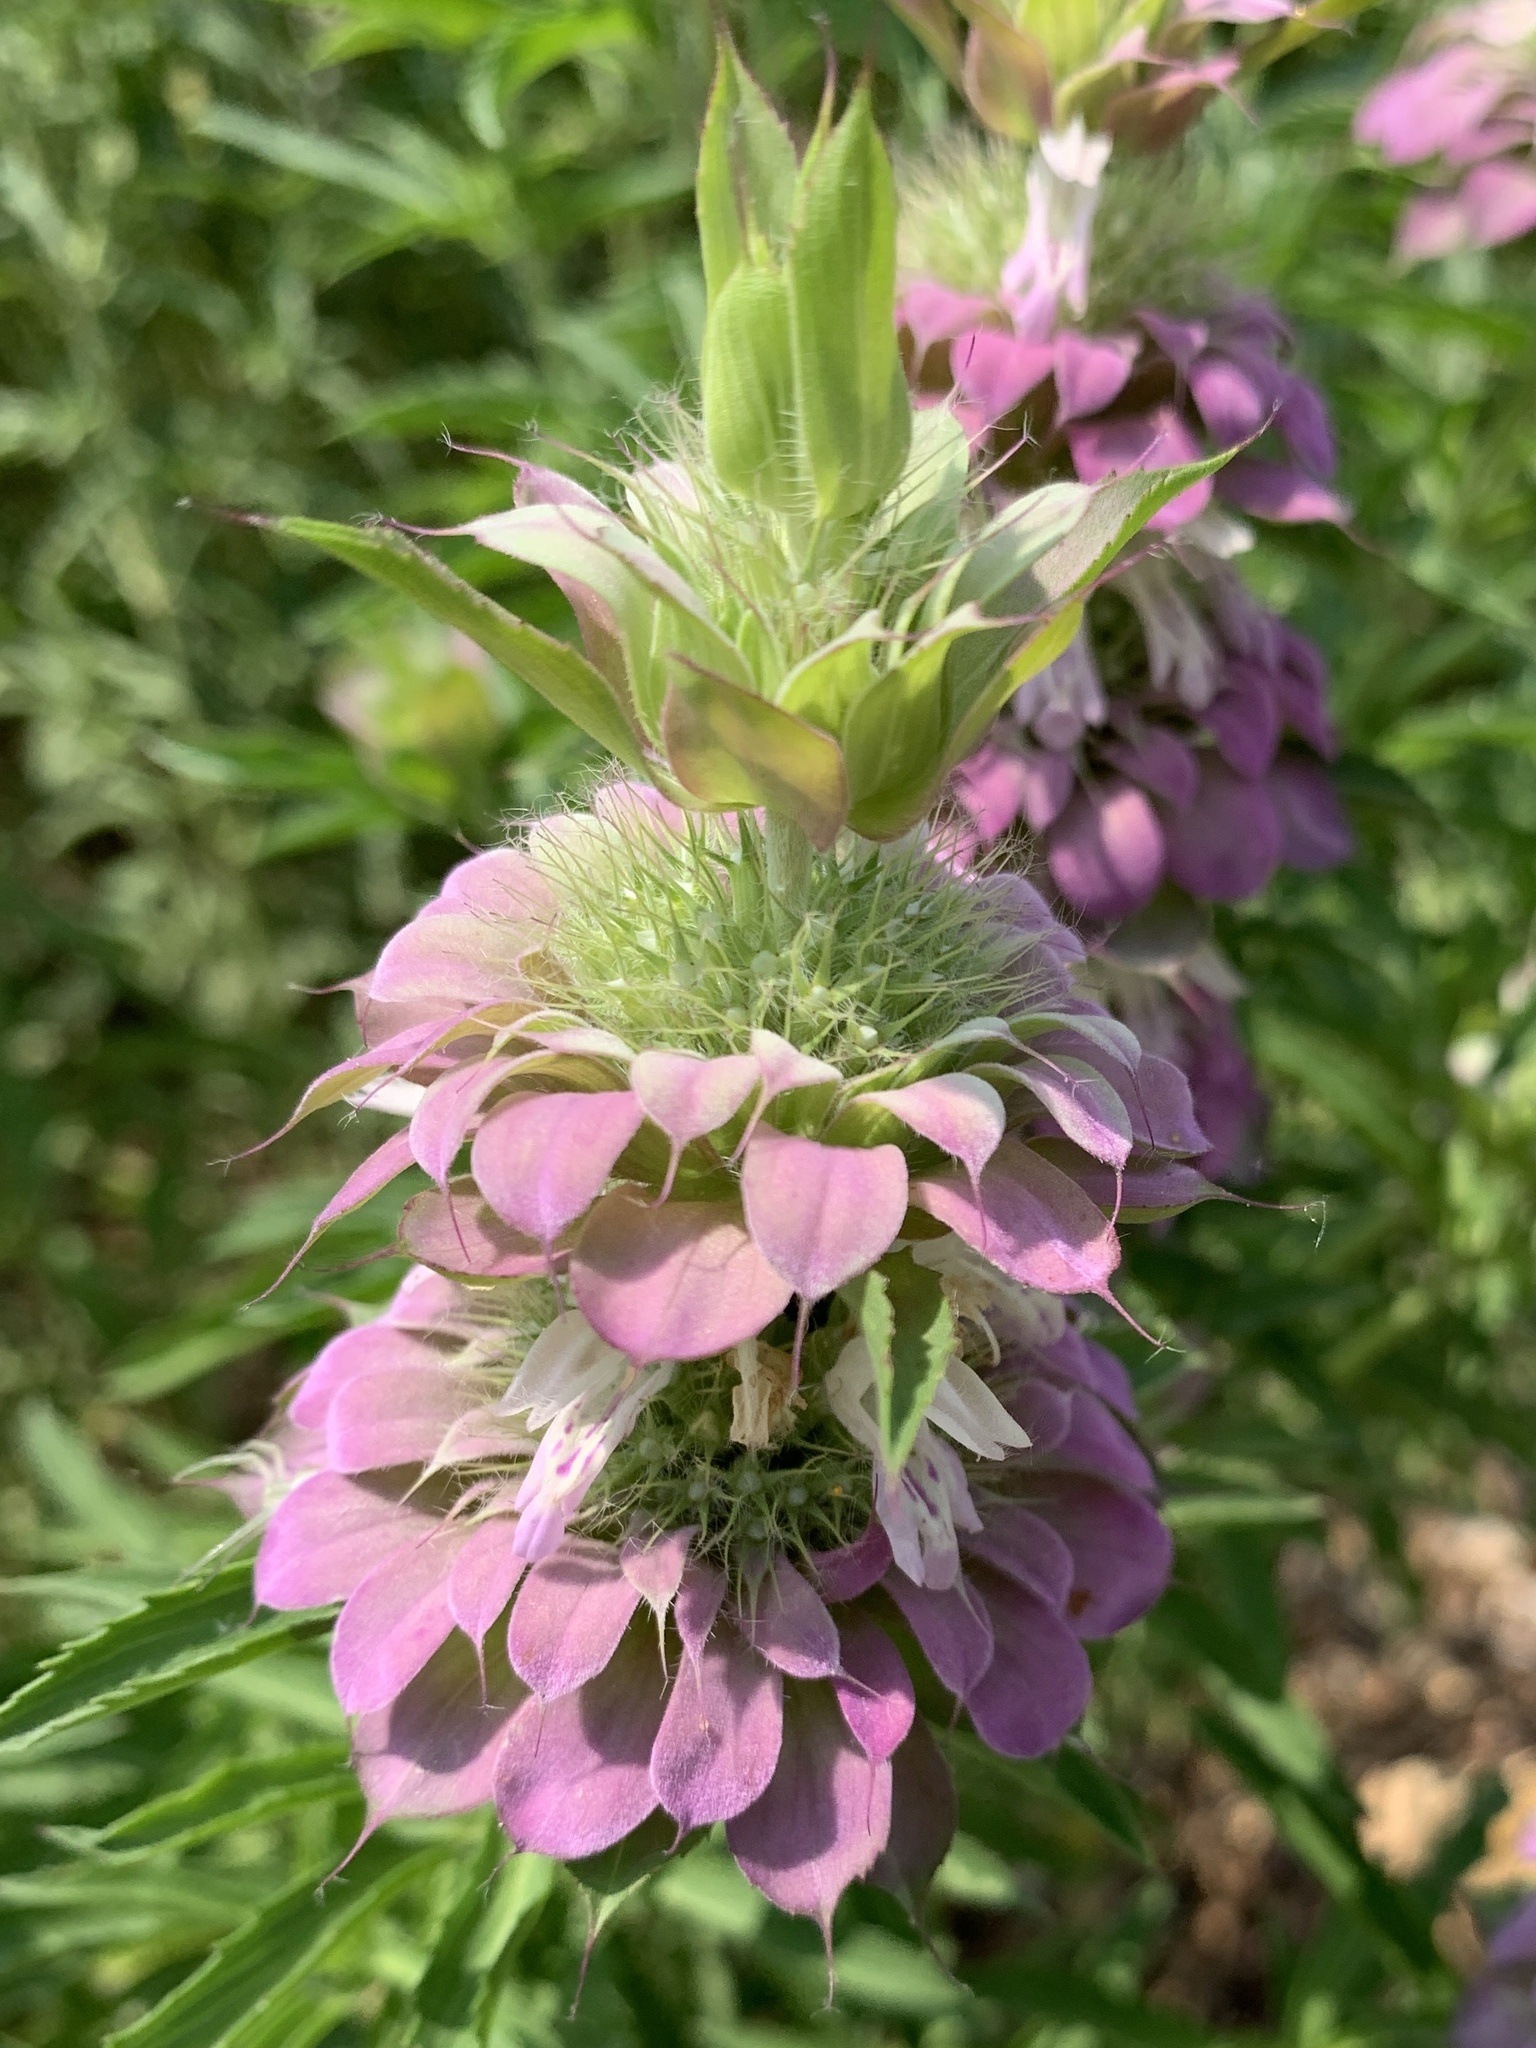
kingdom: Plantae
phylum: Tracheophyta
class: Magnoliopsida
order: Lamiales
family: Lamiaceae
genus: Monarda
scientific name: Monarda citriodora
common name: Lemon beebalm
